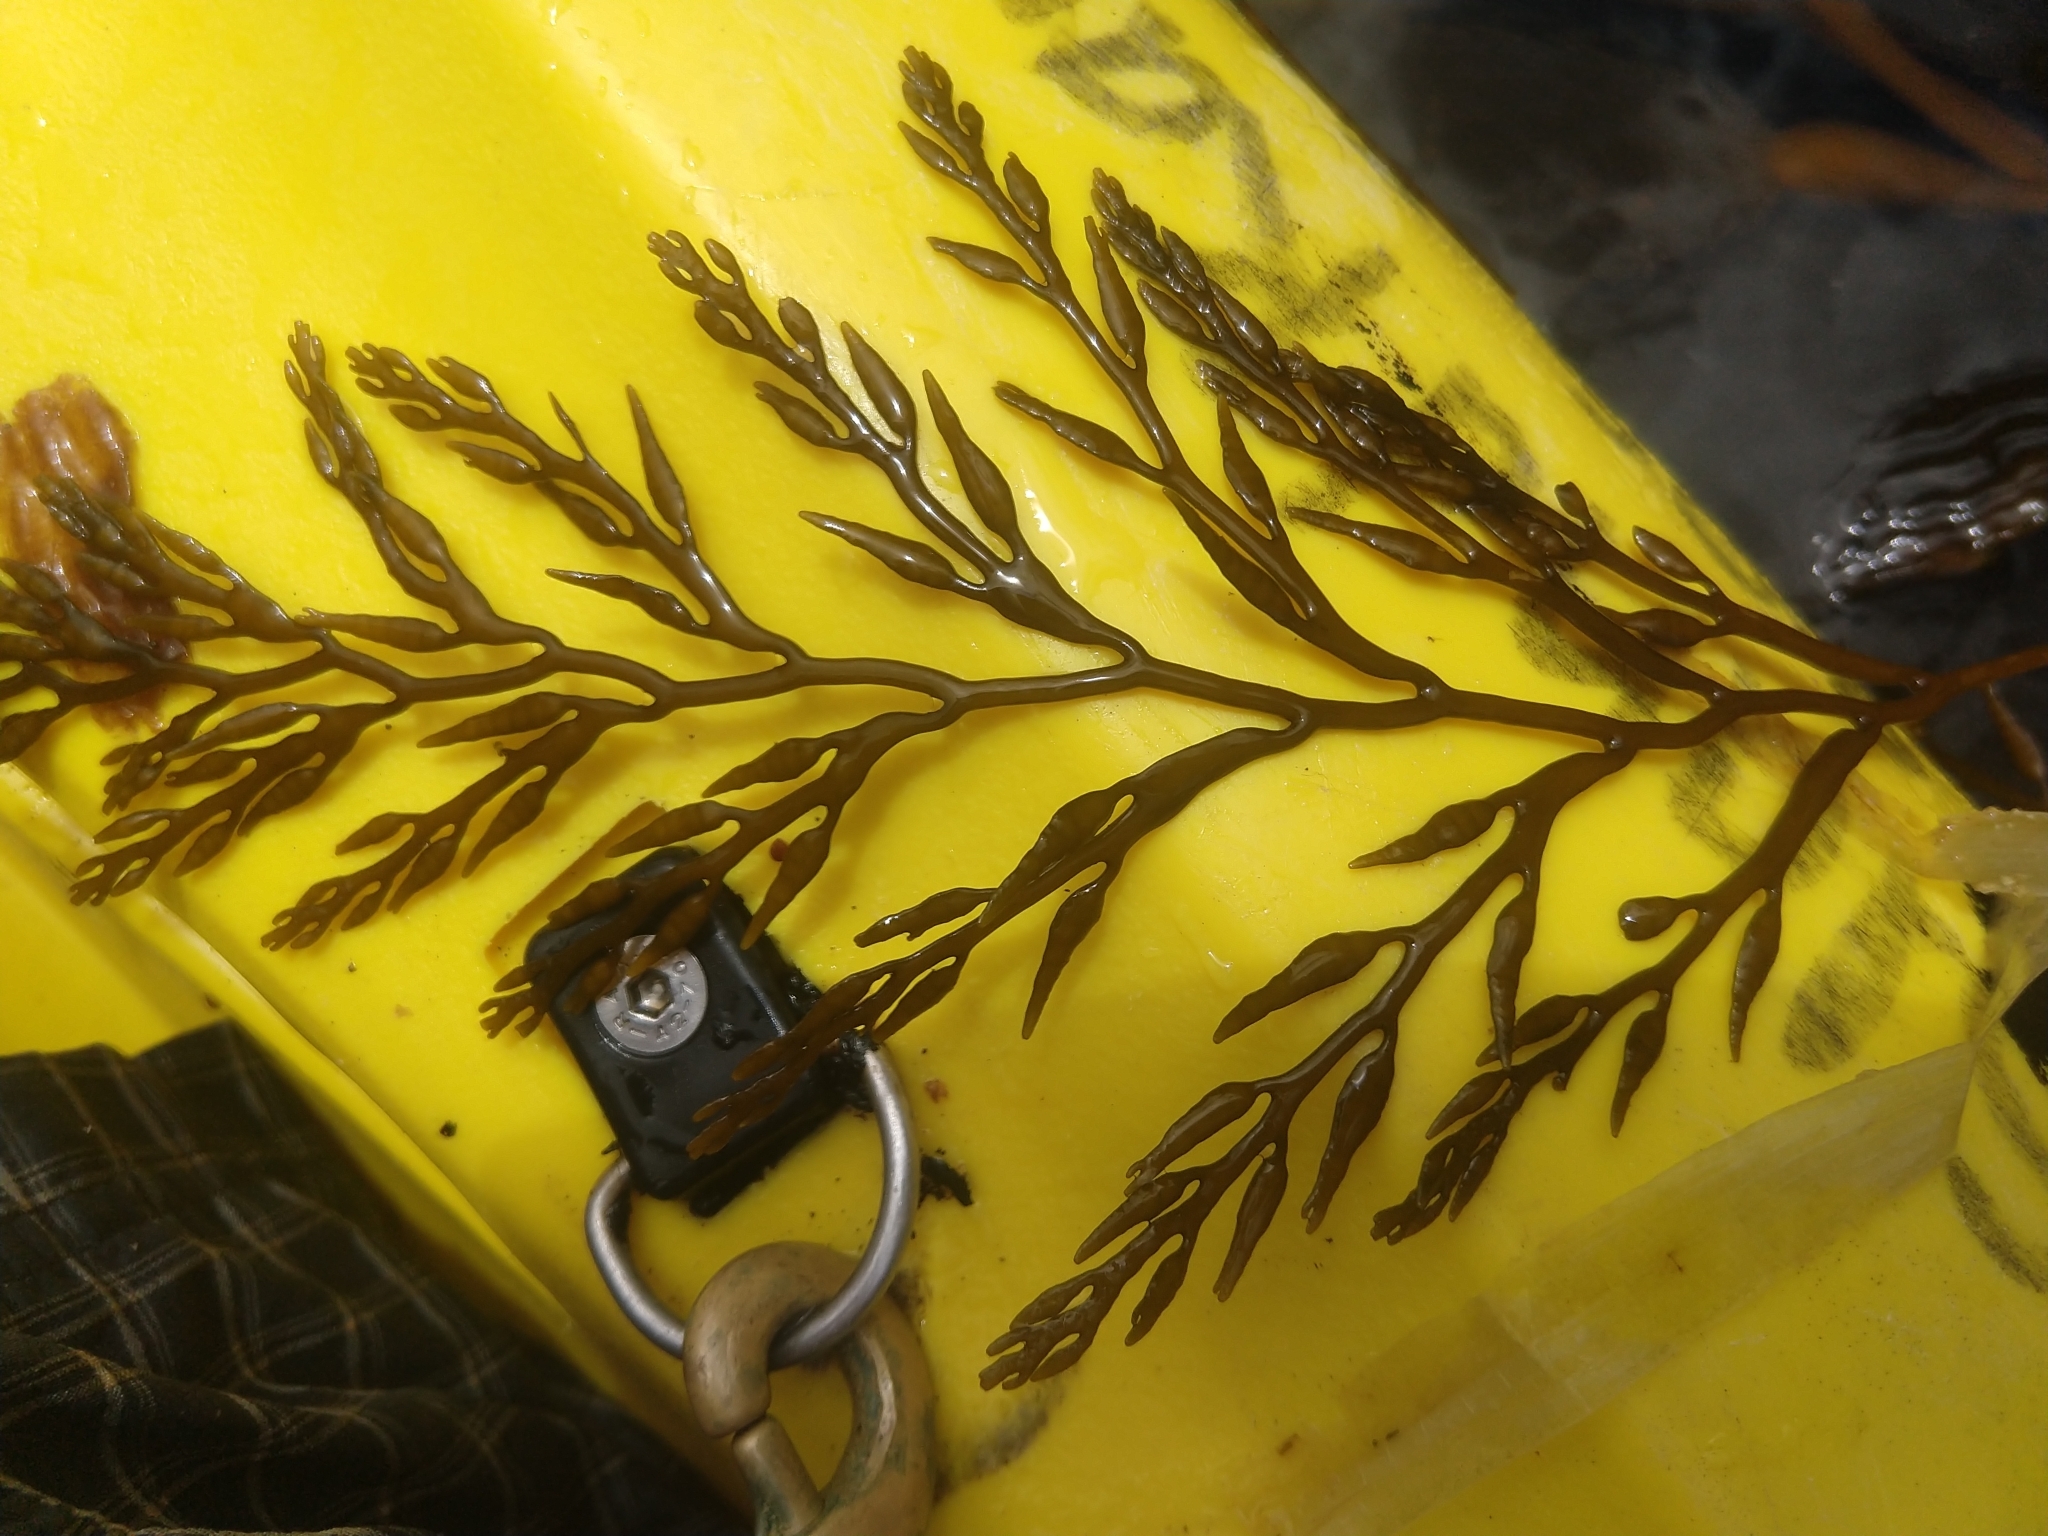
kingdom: Chromista
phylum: Ochrophyta
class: Phaeophyceae
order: Fucales
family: Sargassaceae
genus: Stephanocystis
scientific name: Stephanocystis
